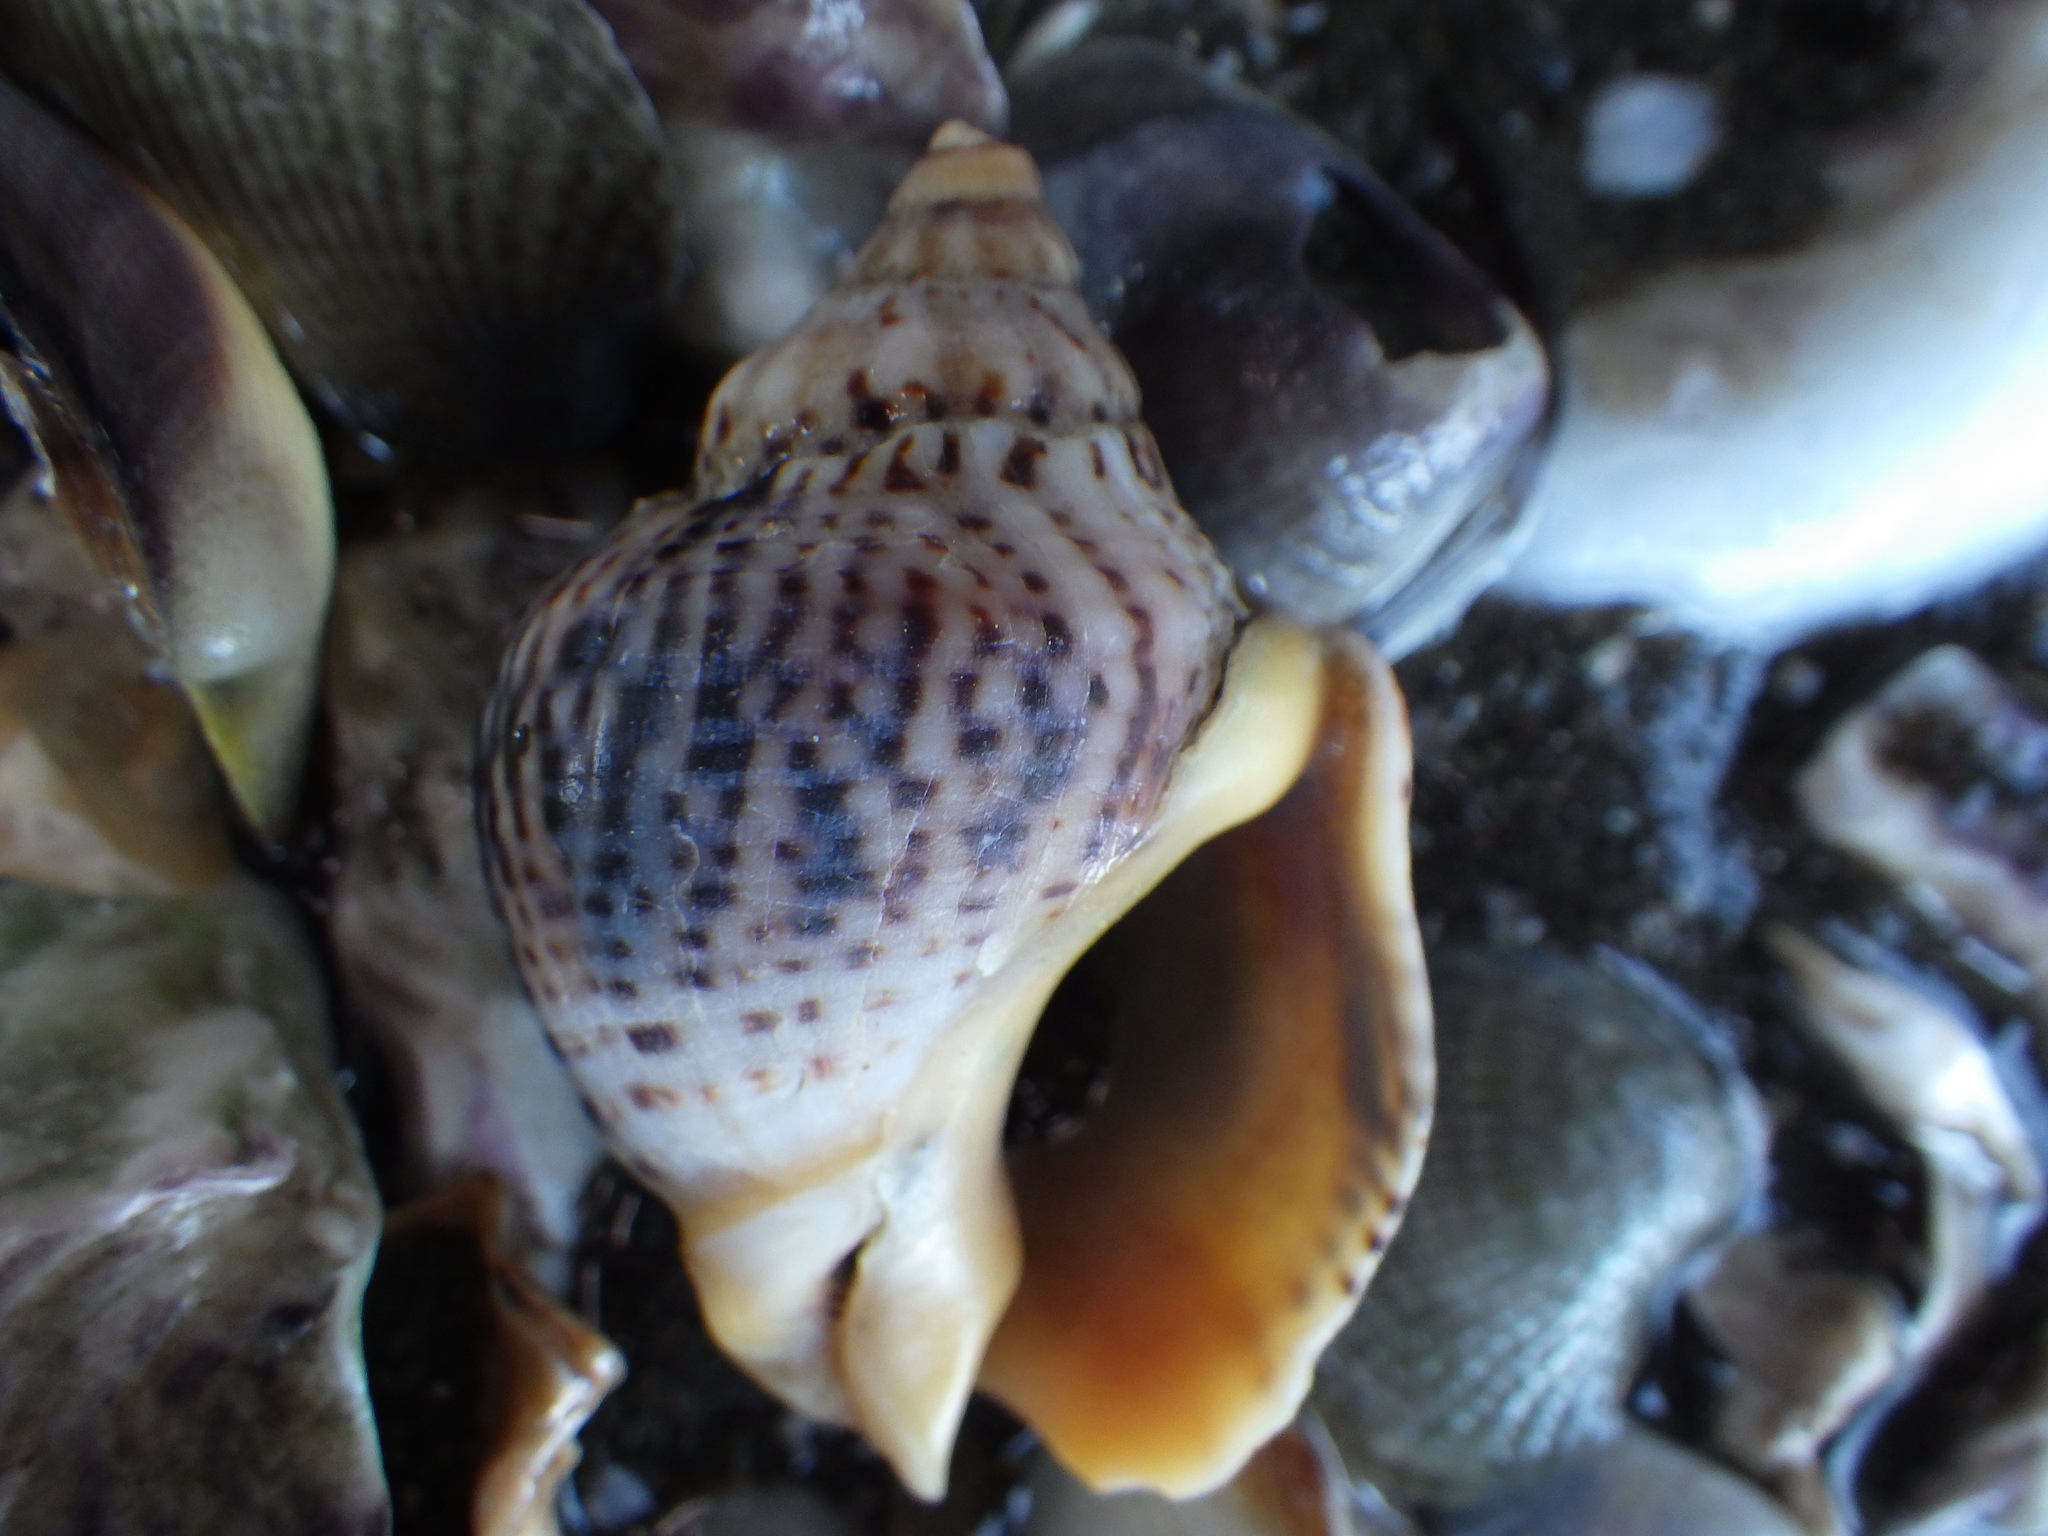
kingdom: Animalia
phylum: Mollusca
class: Gastropoda
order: Neogastropoda
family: Cominellidae
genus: Cominella
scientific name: Cominella adspersa
